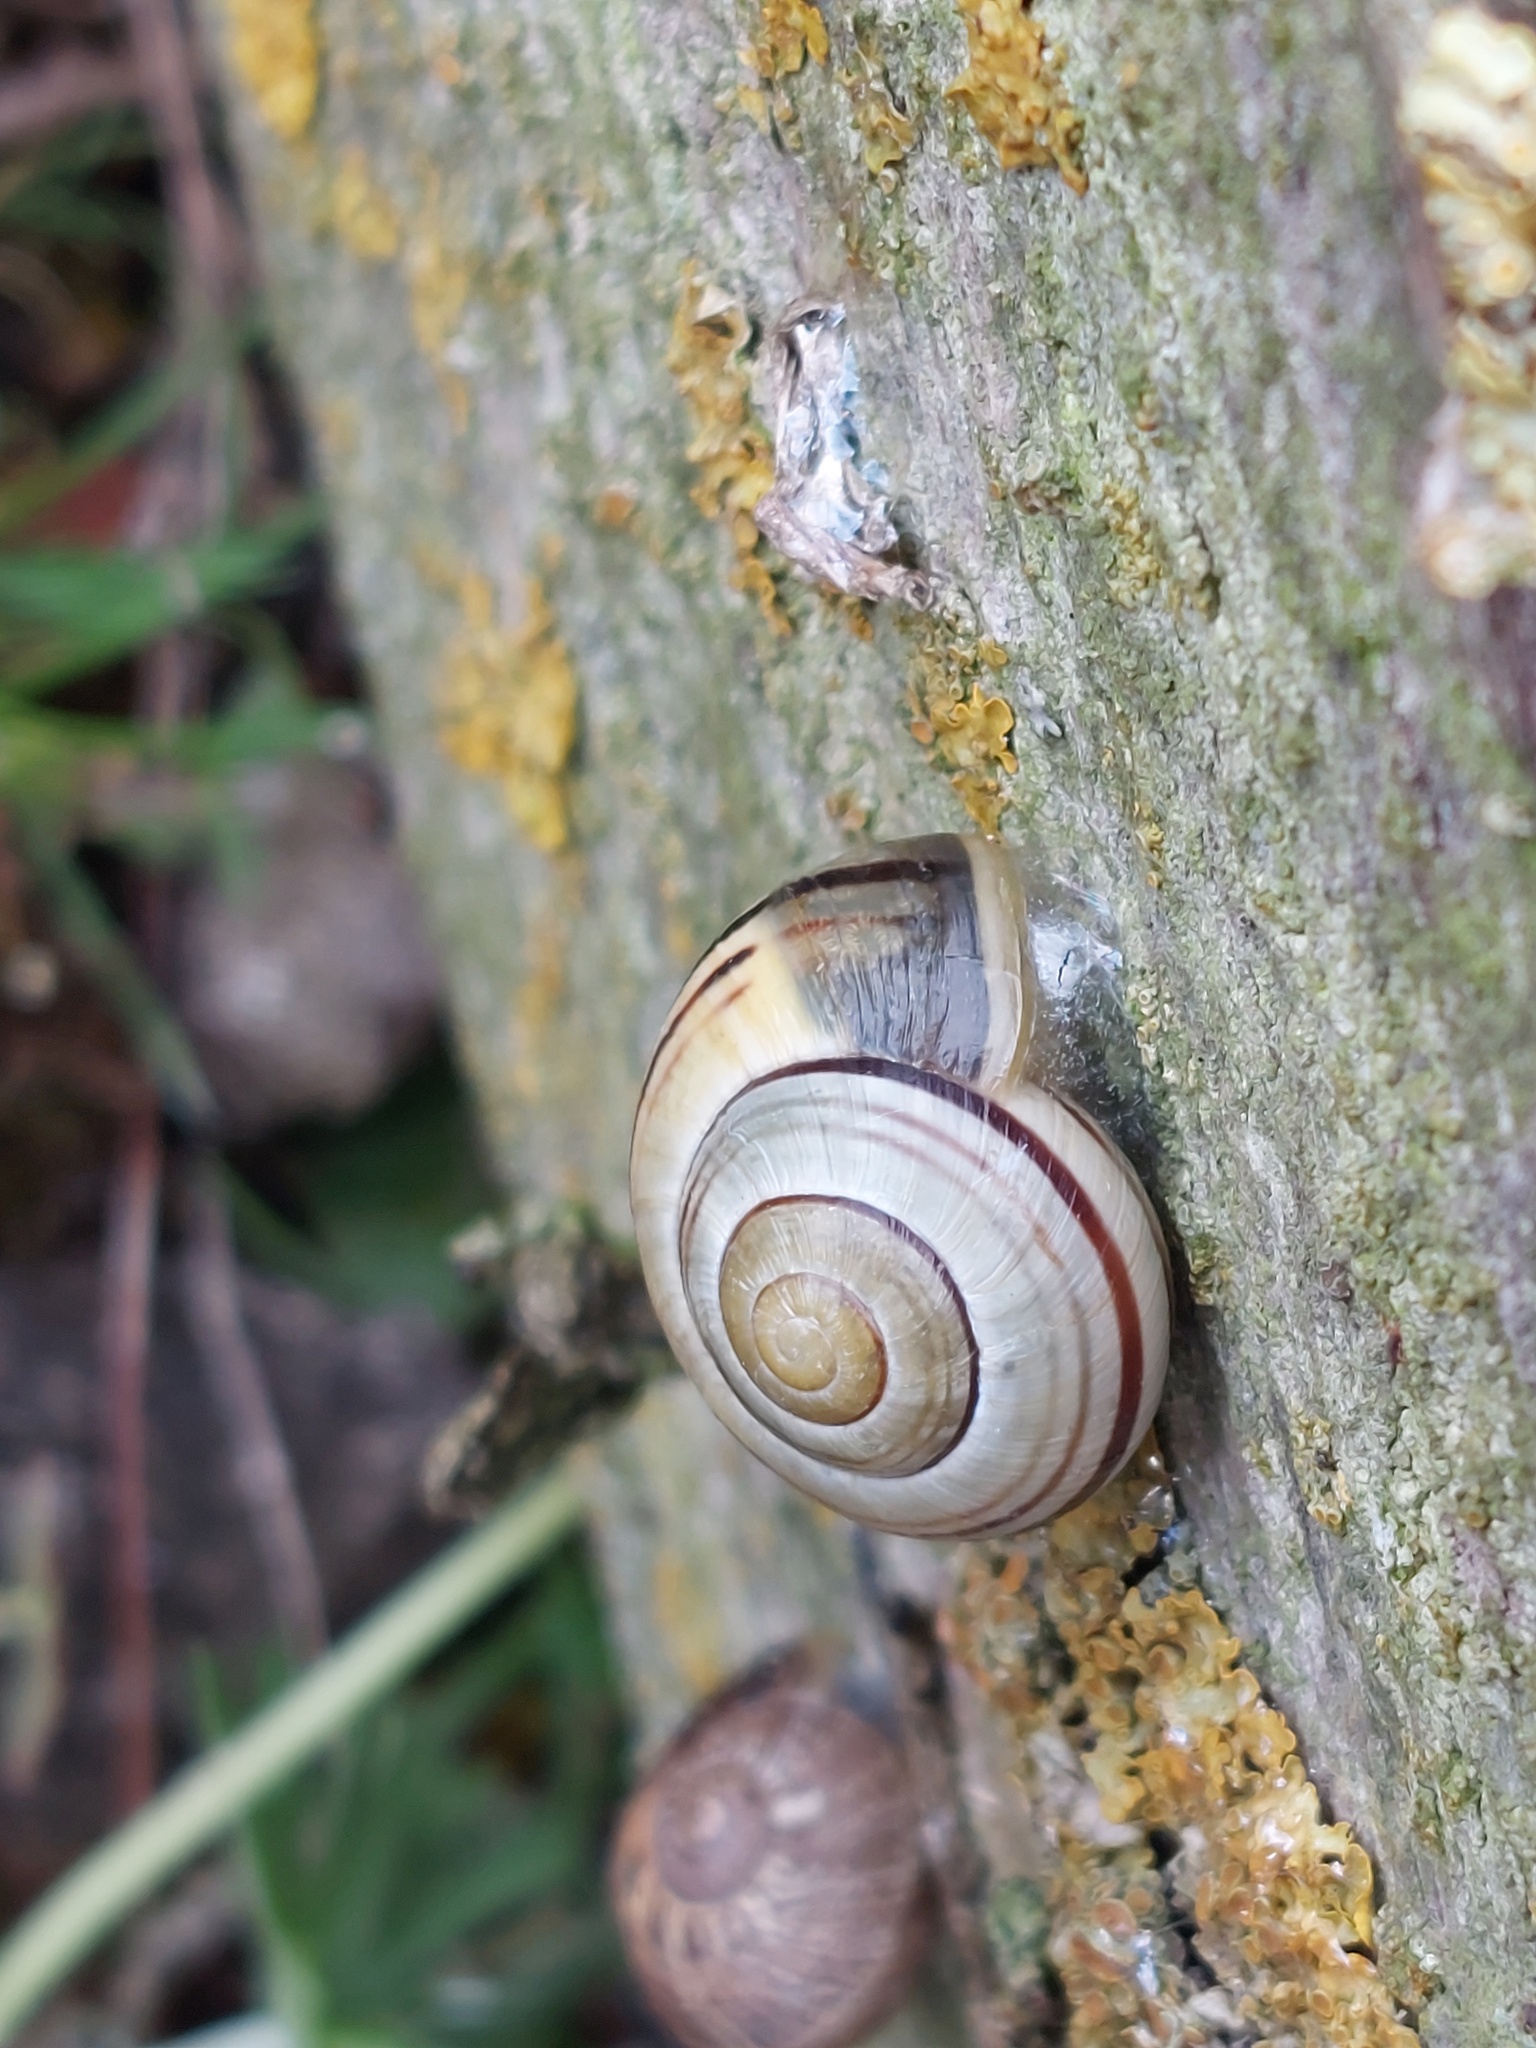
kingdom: Animalia
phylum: Mollusca
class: Gastropoda
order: Stylommatophora
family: Helicidae
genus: Cepaea
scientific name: Cepaea
